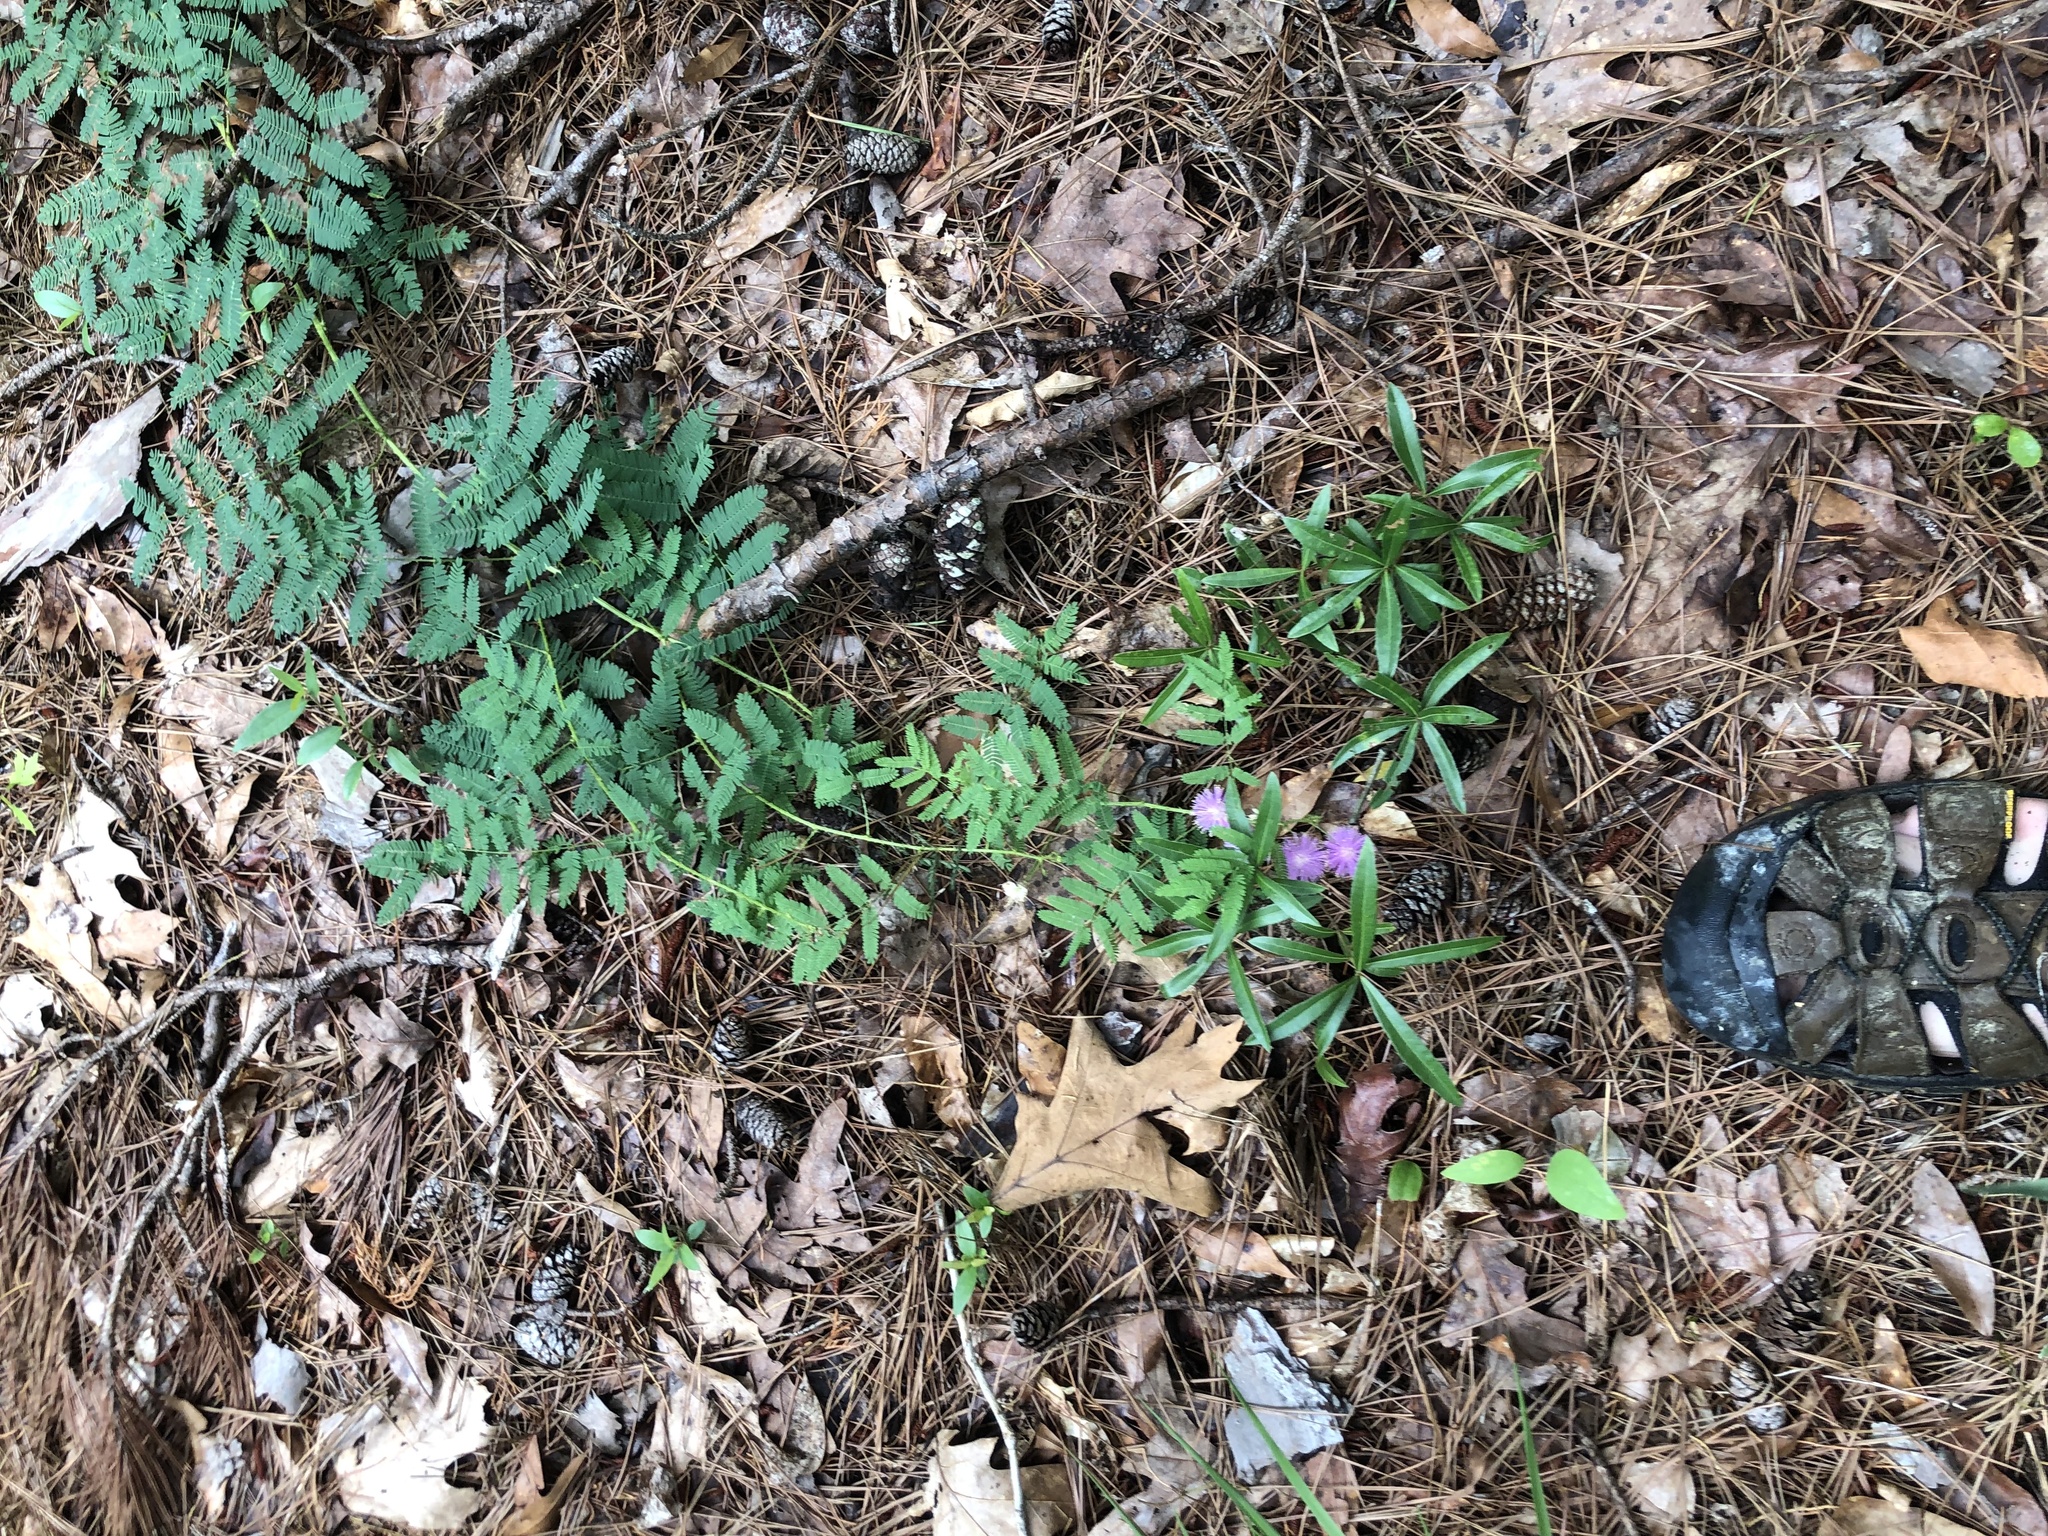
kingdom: Plantae
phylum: Tracheophyta
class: Magnoliopsida
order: Fabales
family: Fabaceae
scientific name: Fabaceae
